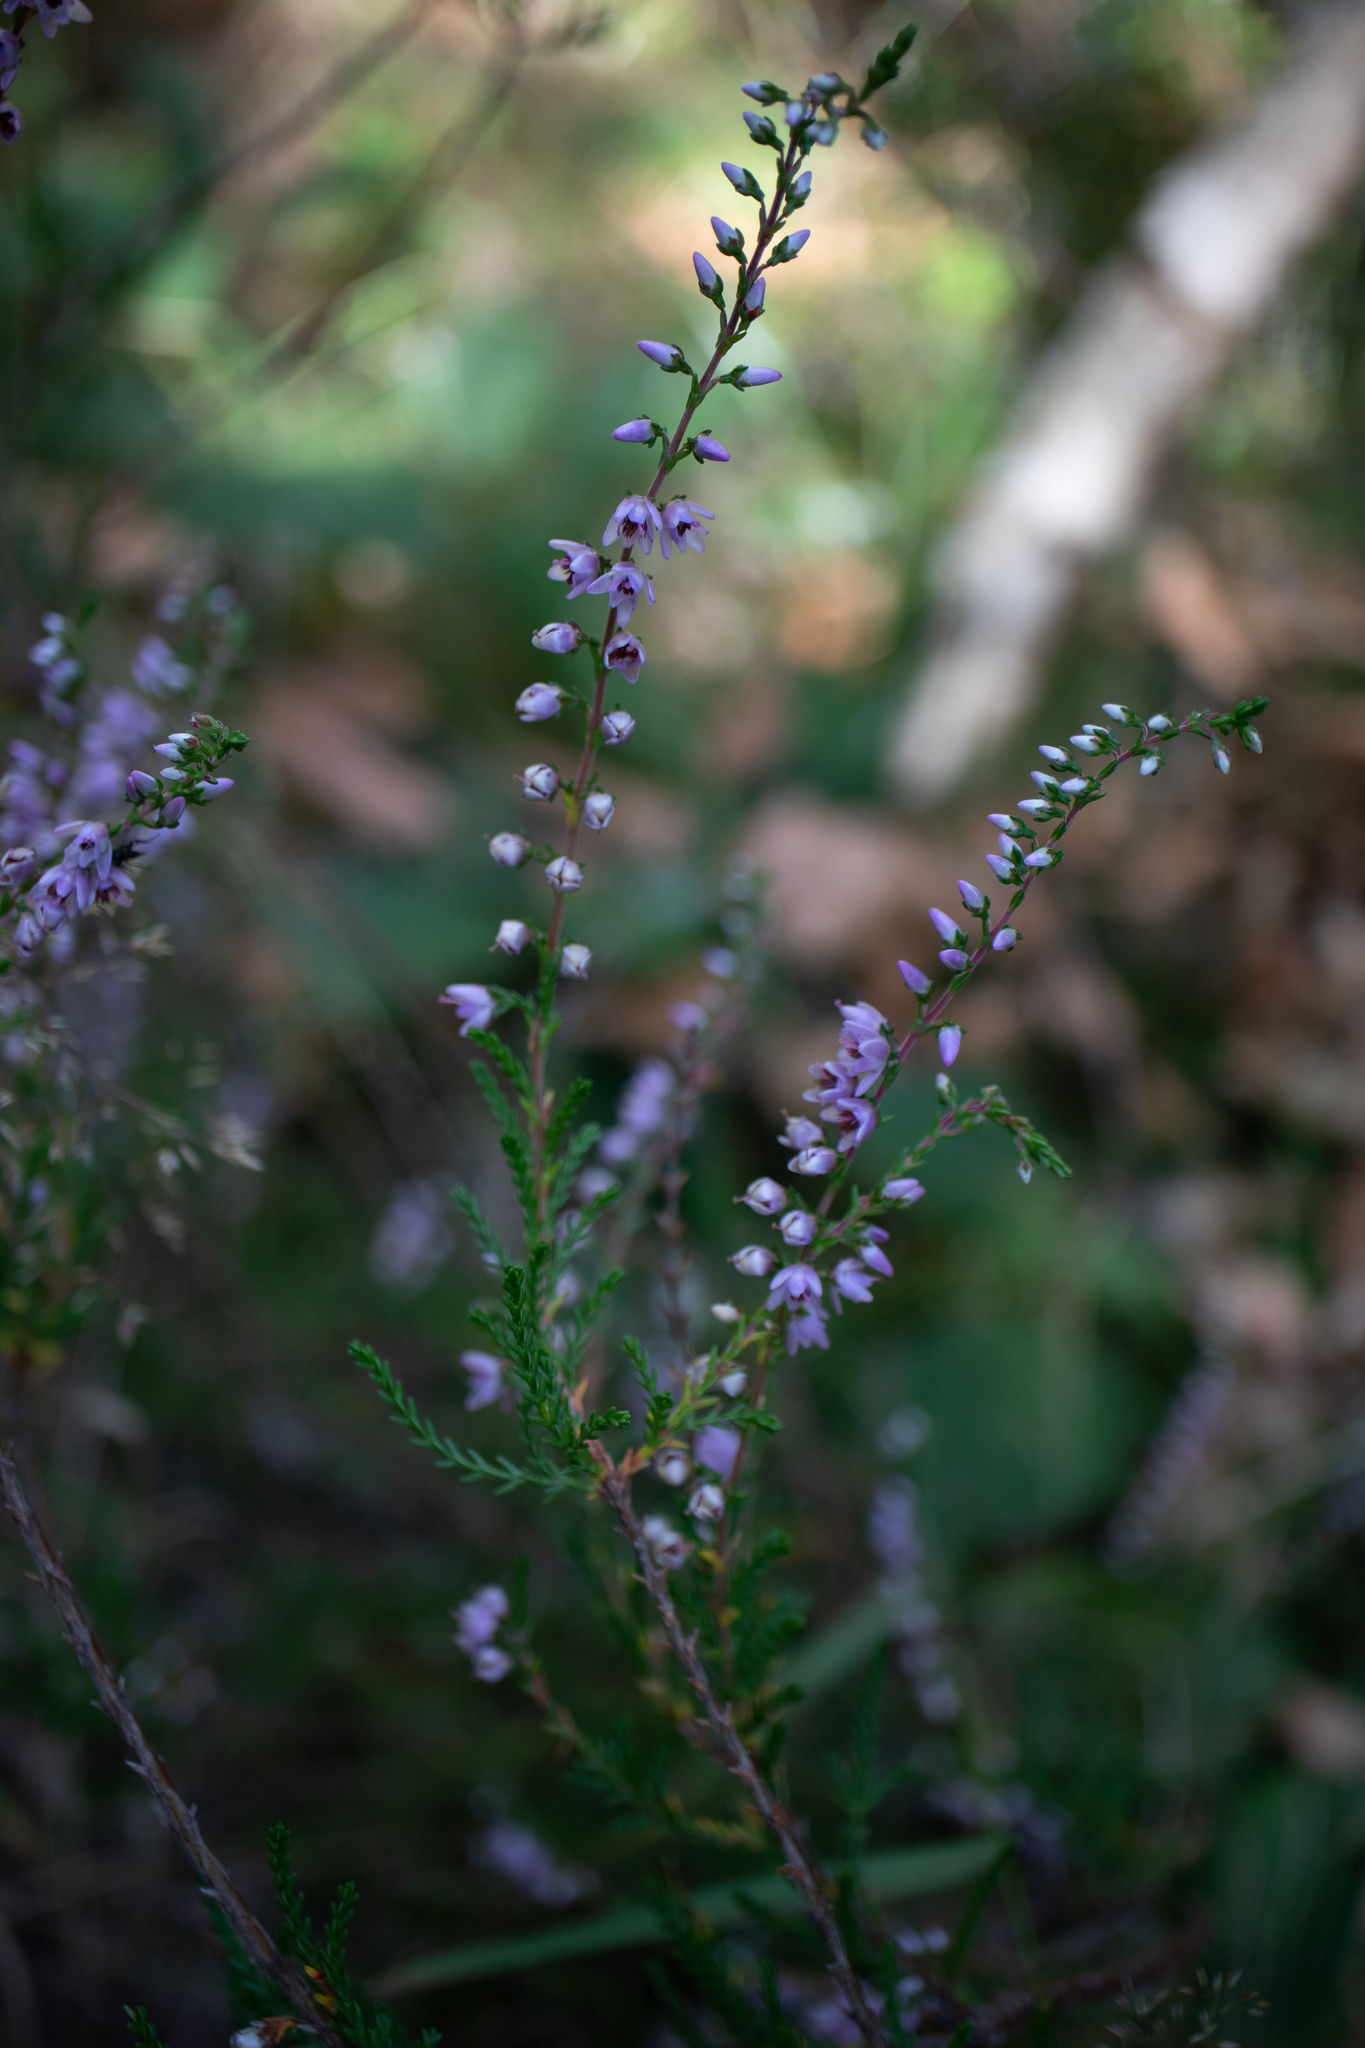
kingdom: Plantae
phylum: Tracheophyta
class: Magnoliopsida
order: Ericales
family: Ericaceae
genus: Calluna
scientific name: Calluna vulgaris
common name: Heather
